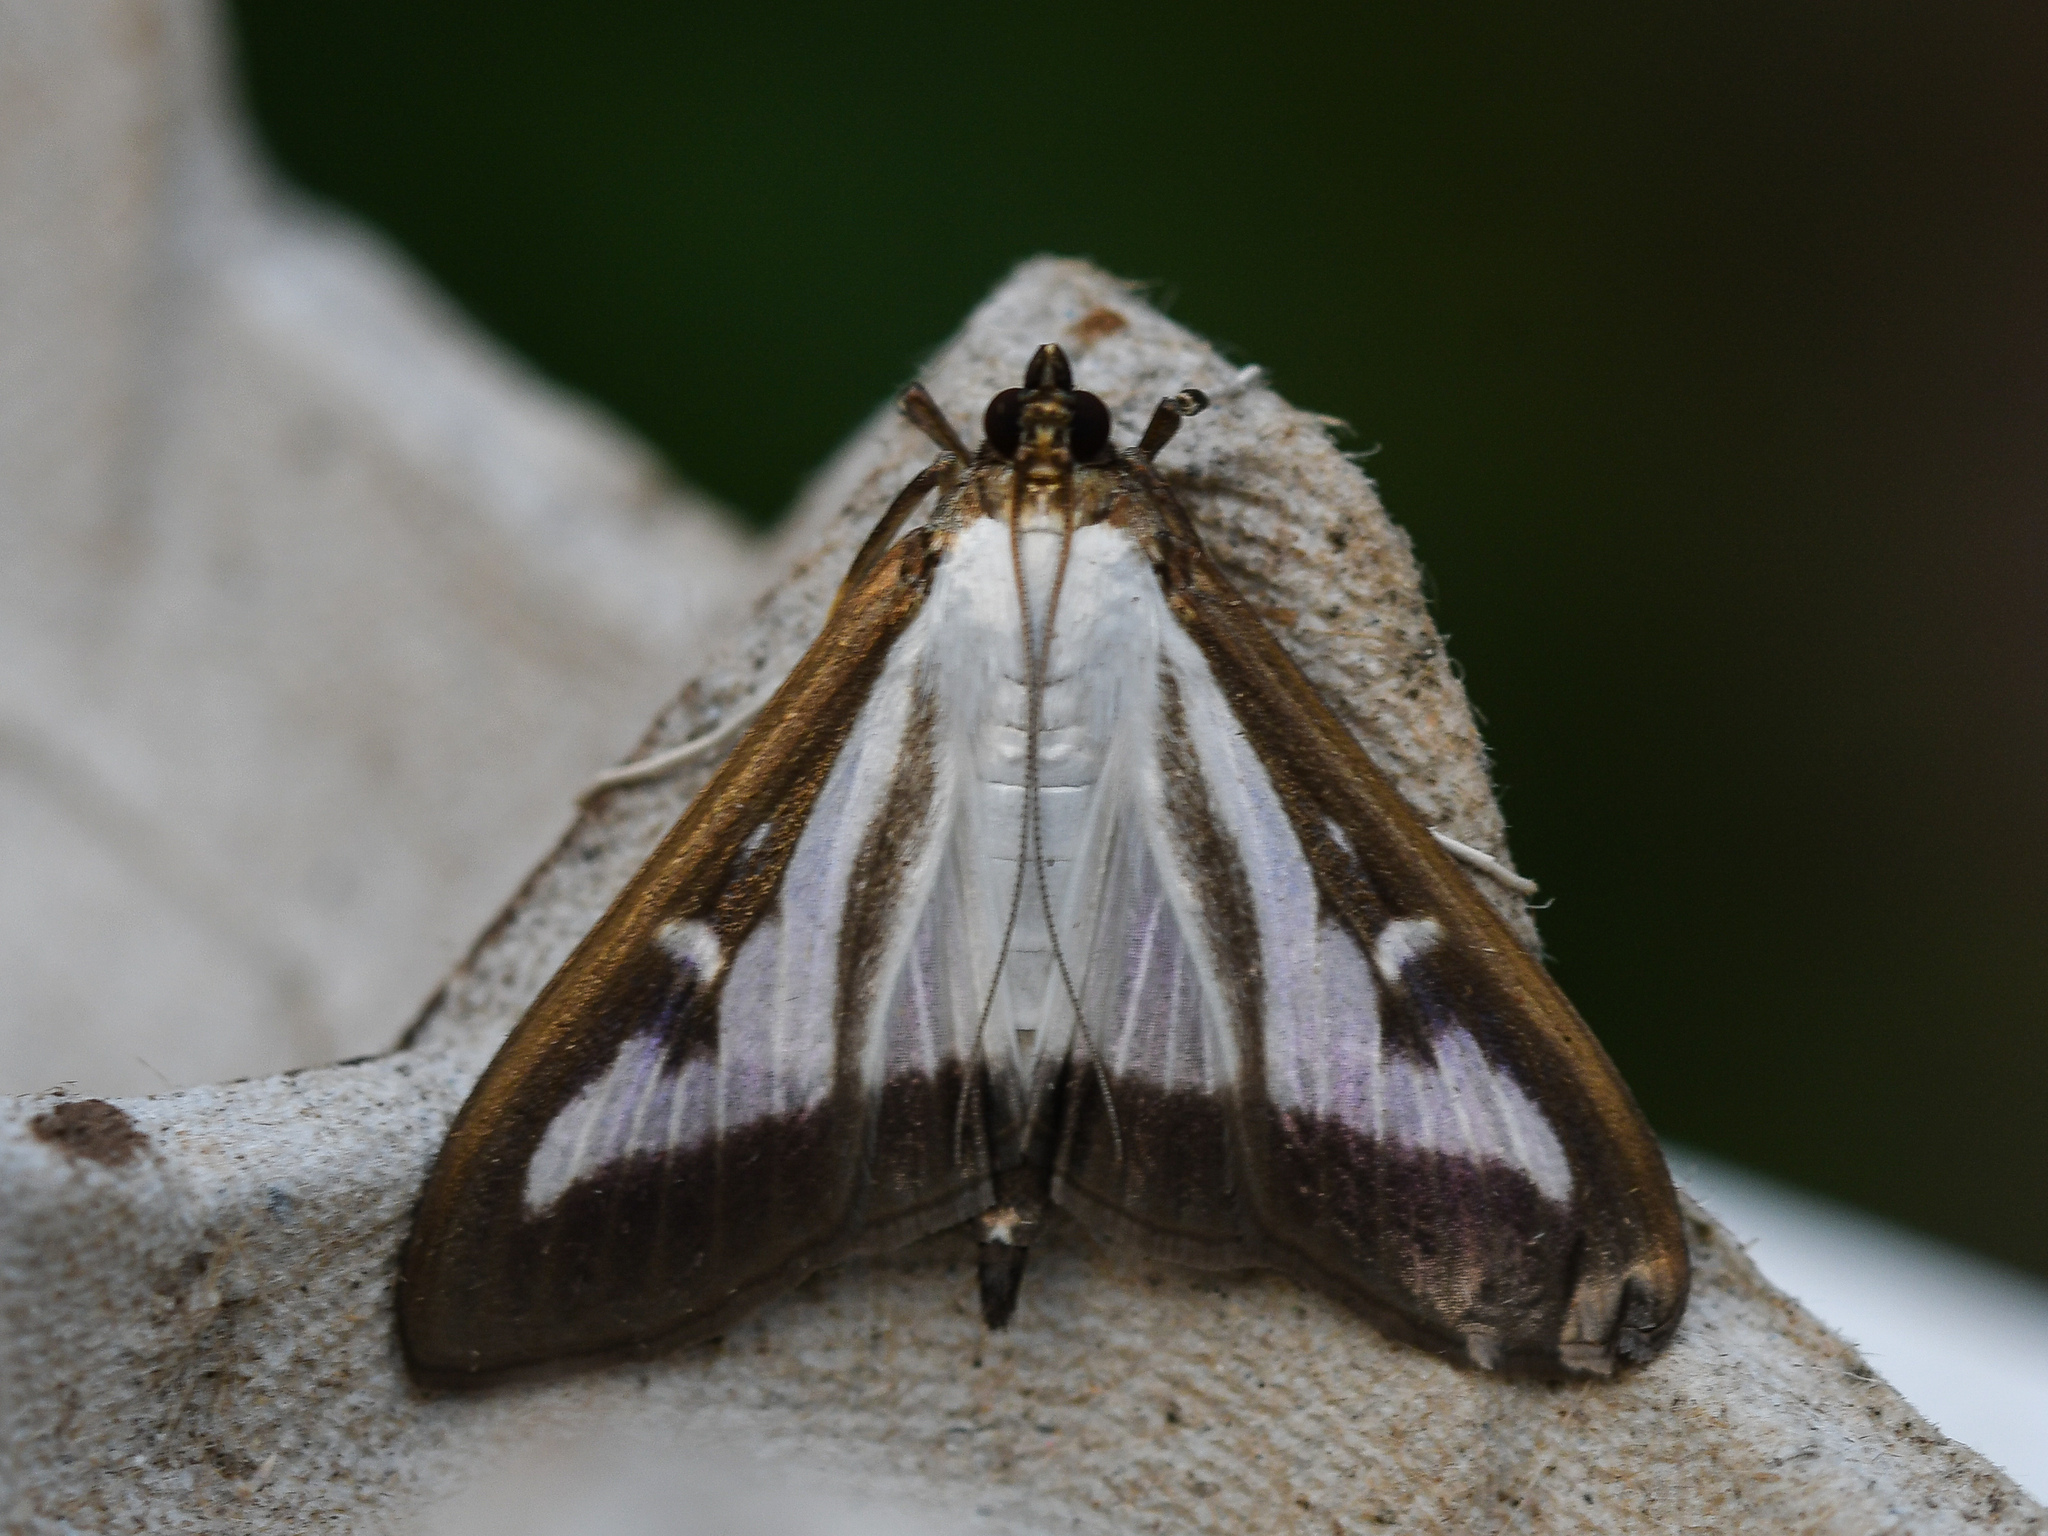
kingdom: Animalia
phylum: Arthropoda
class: Insecta
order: Lepidoptera
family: Crambidae
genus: Cydalima
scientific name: Cydalima perspectalis
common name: Box tree moth
